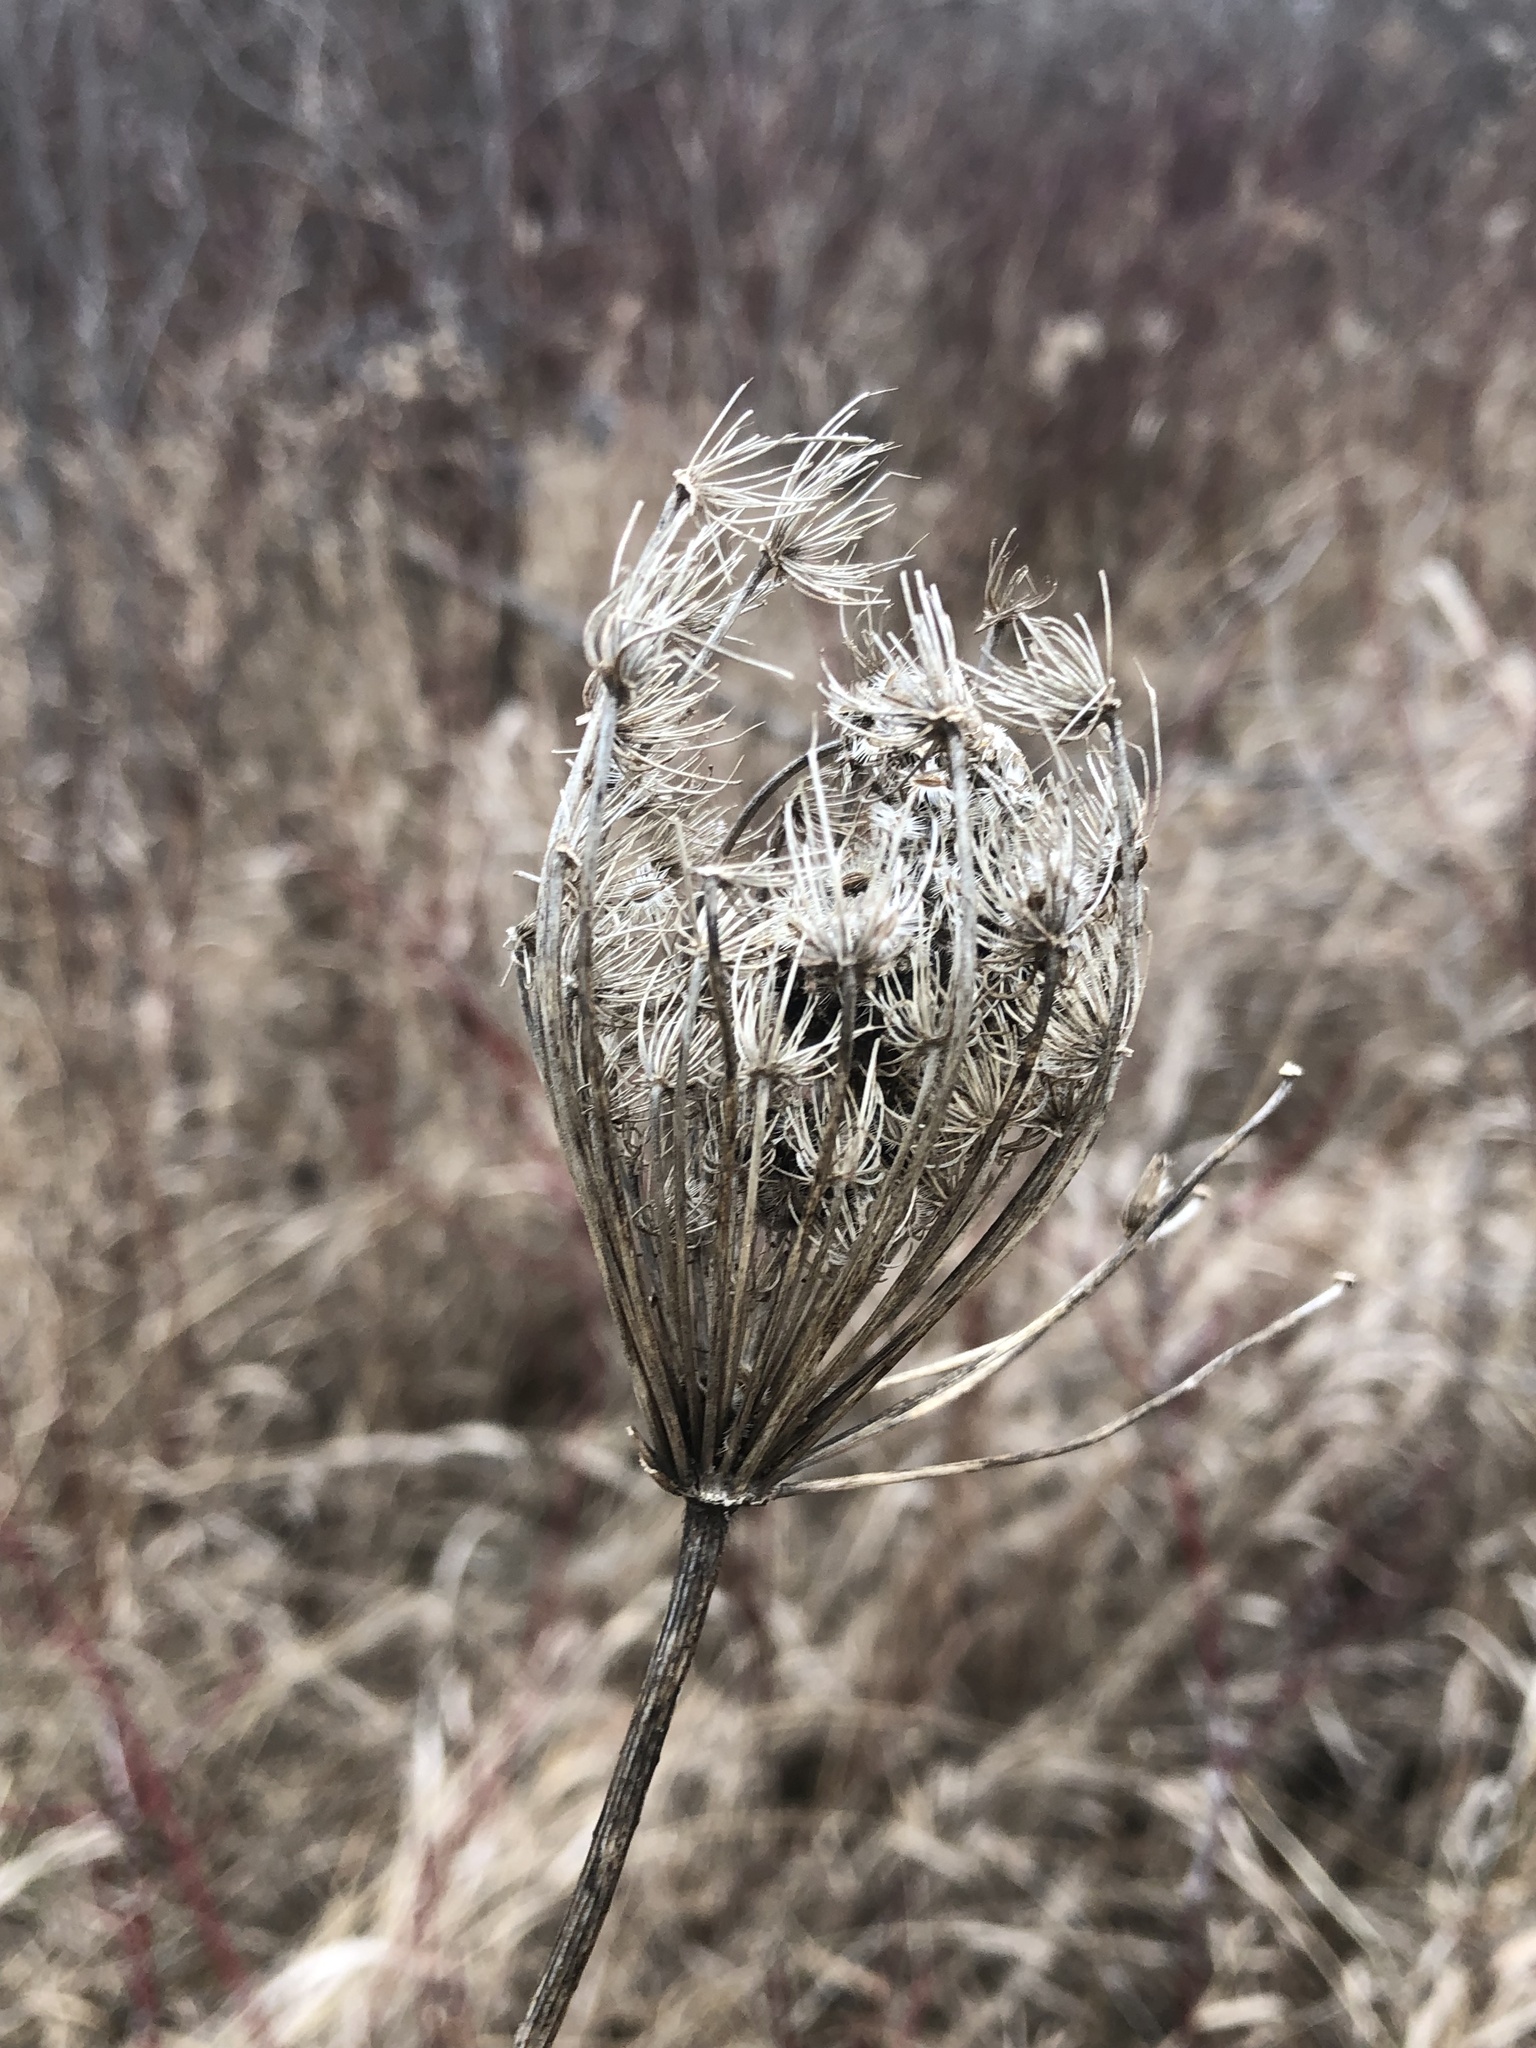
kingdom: Plantae
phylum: Tracheophyta
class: Magnoliopsida
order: Apiales
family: Apiaceae
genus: Daucus
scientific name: Daucus carota
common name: Wild carrot
